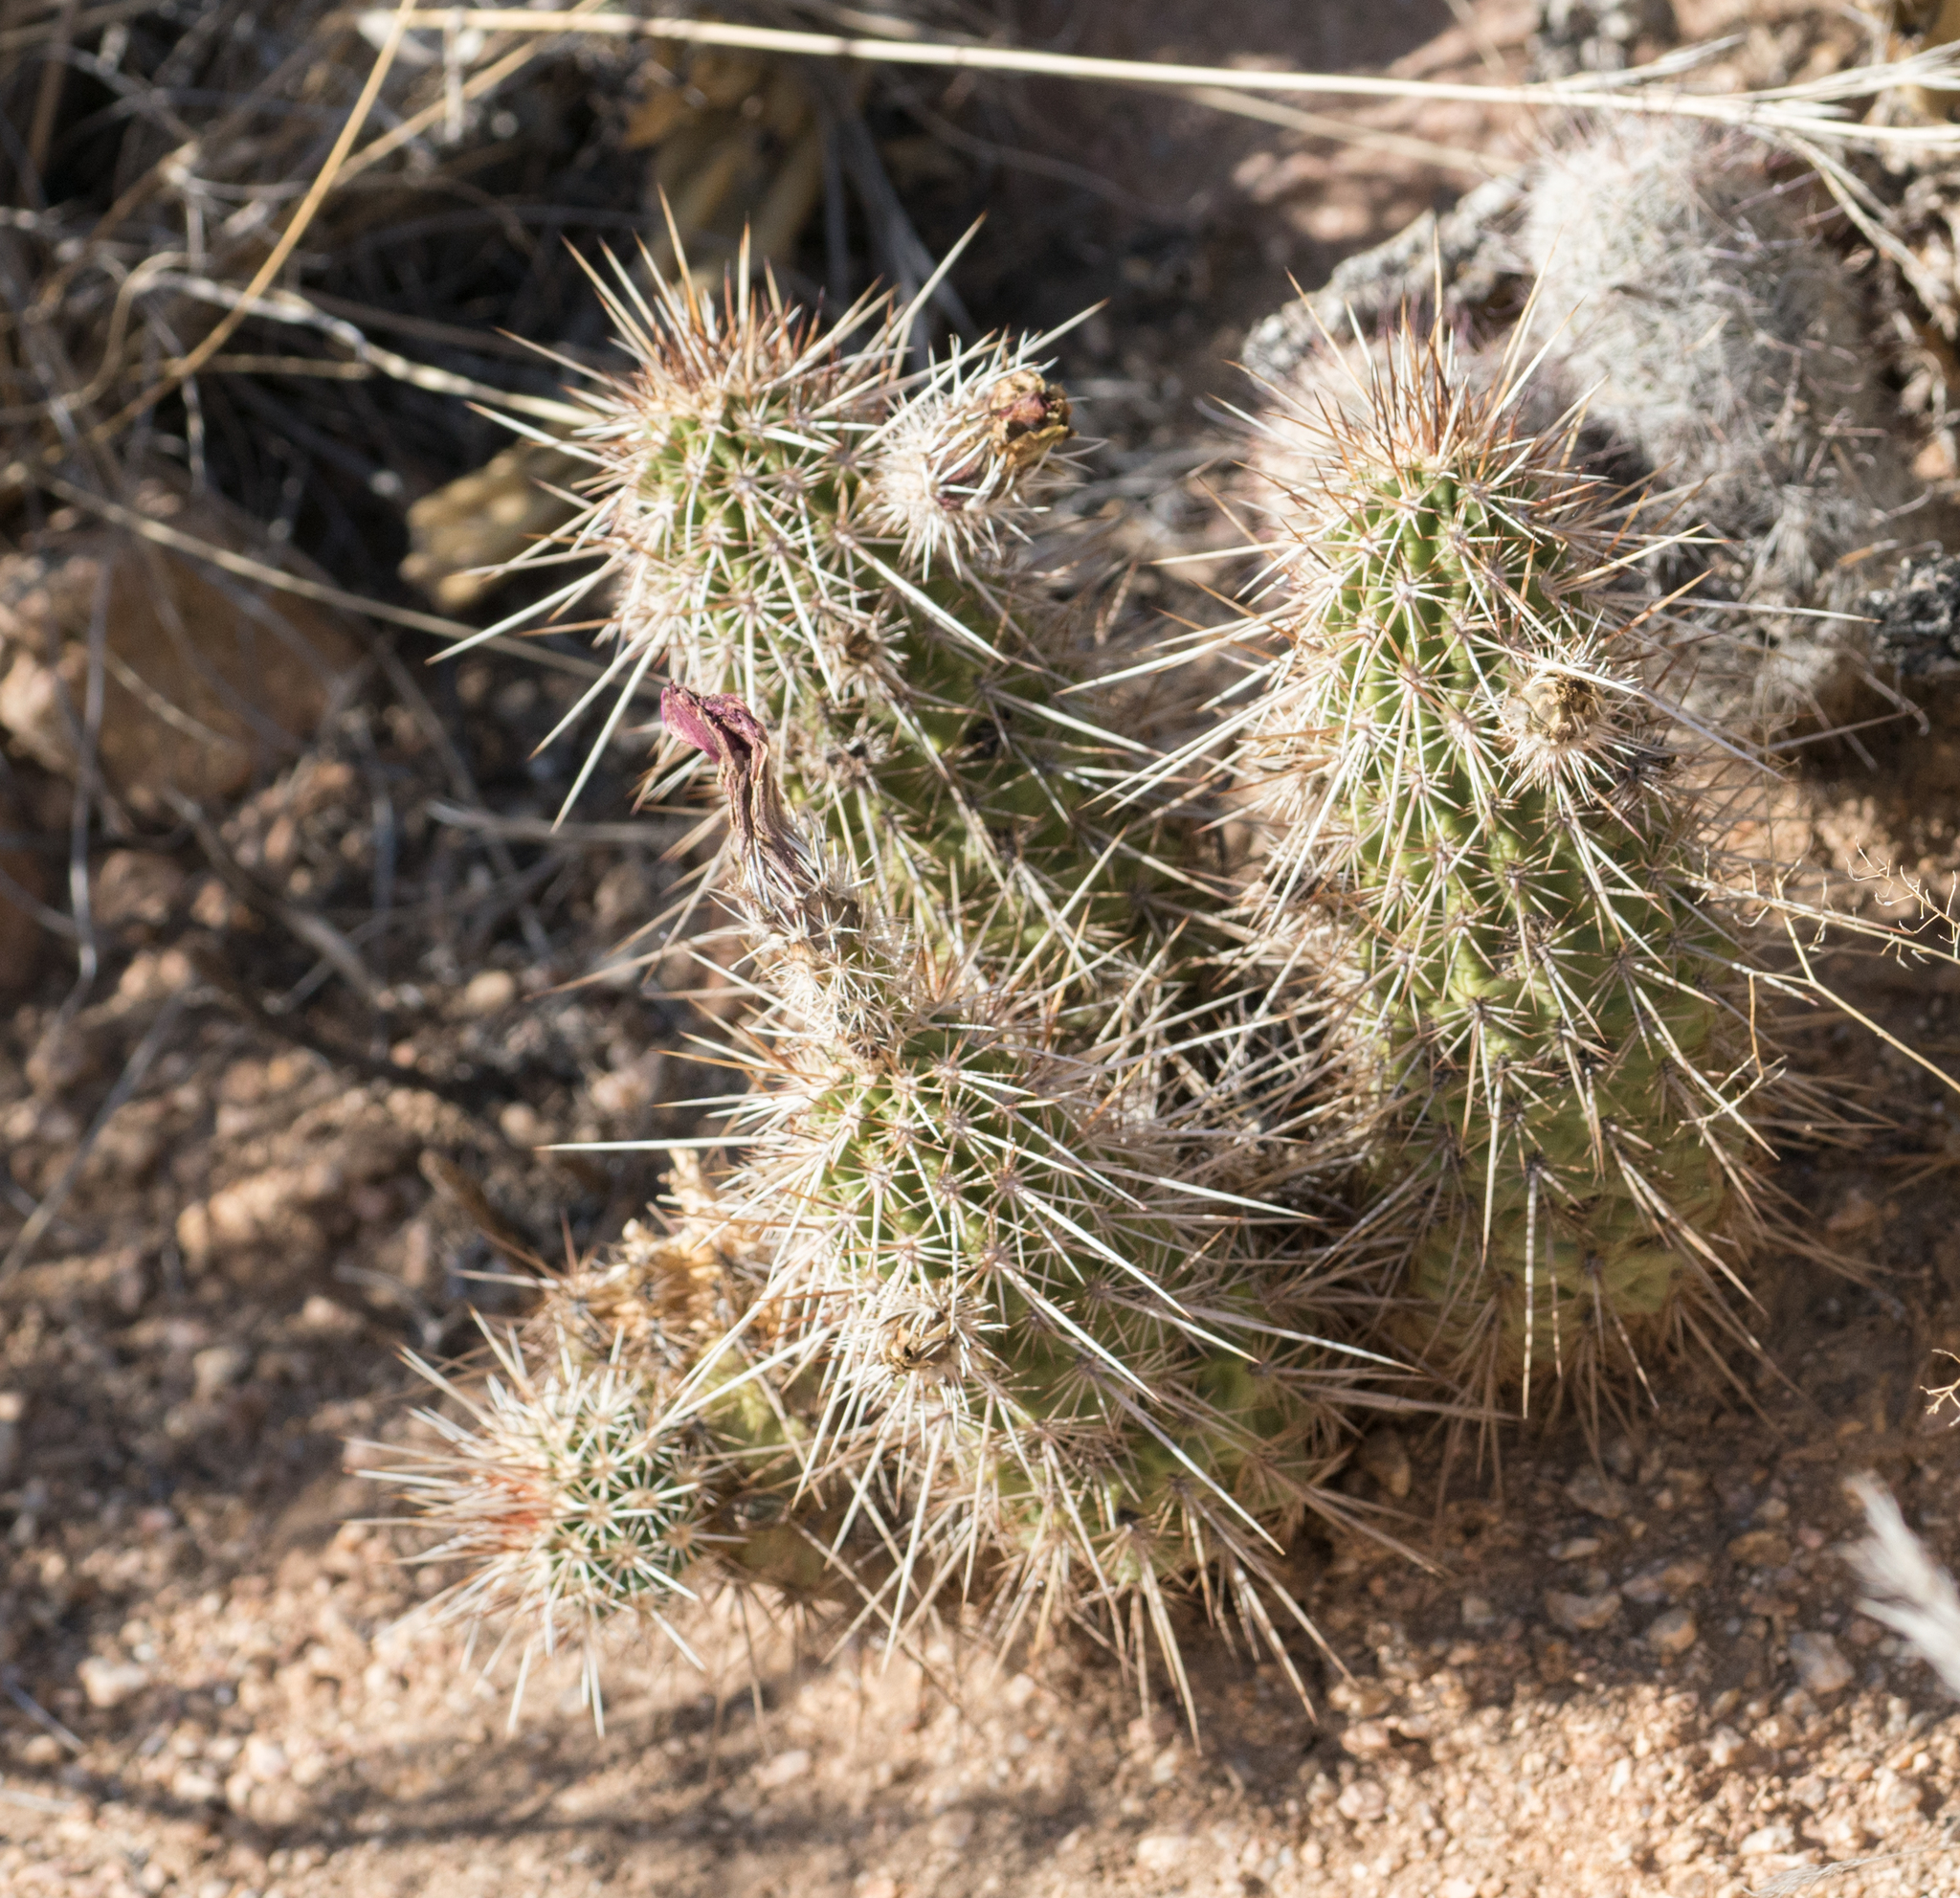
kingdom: Plantae
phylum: Tracheophyta
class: Magnoliopsida
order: Caryophyllales
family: Cactaceae
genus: Echinocereus
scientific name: Echinocereus fasciculatus
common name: Bundle hedgehog
